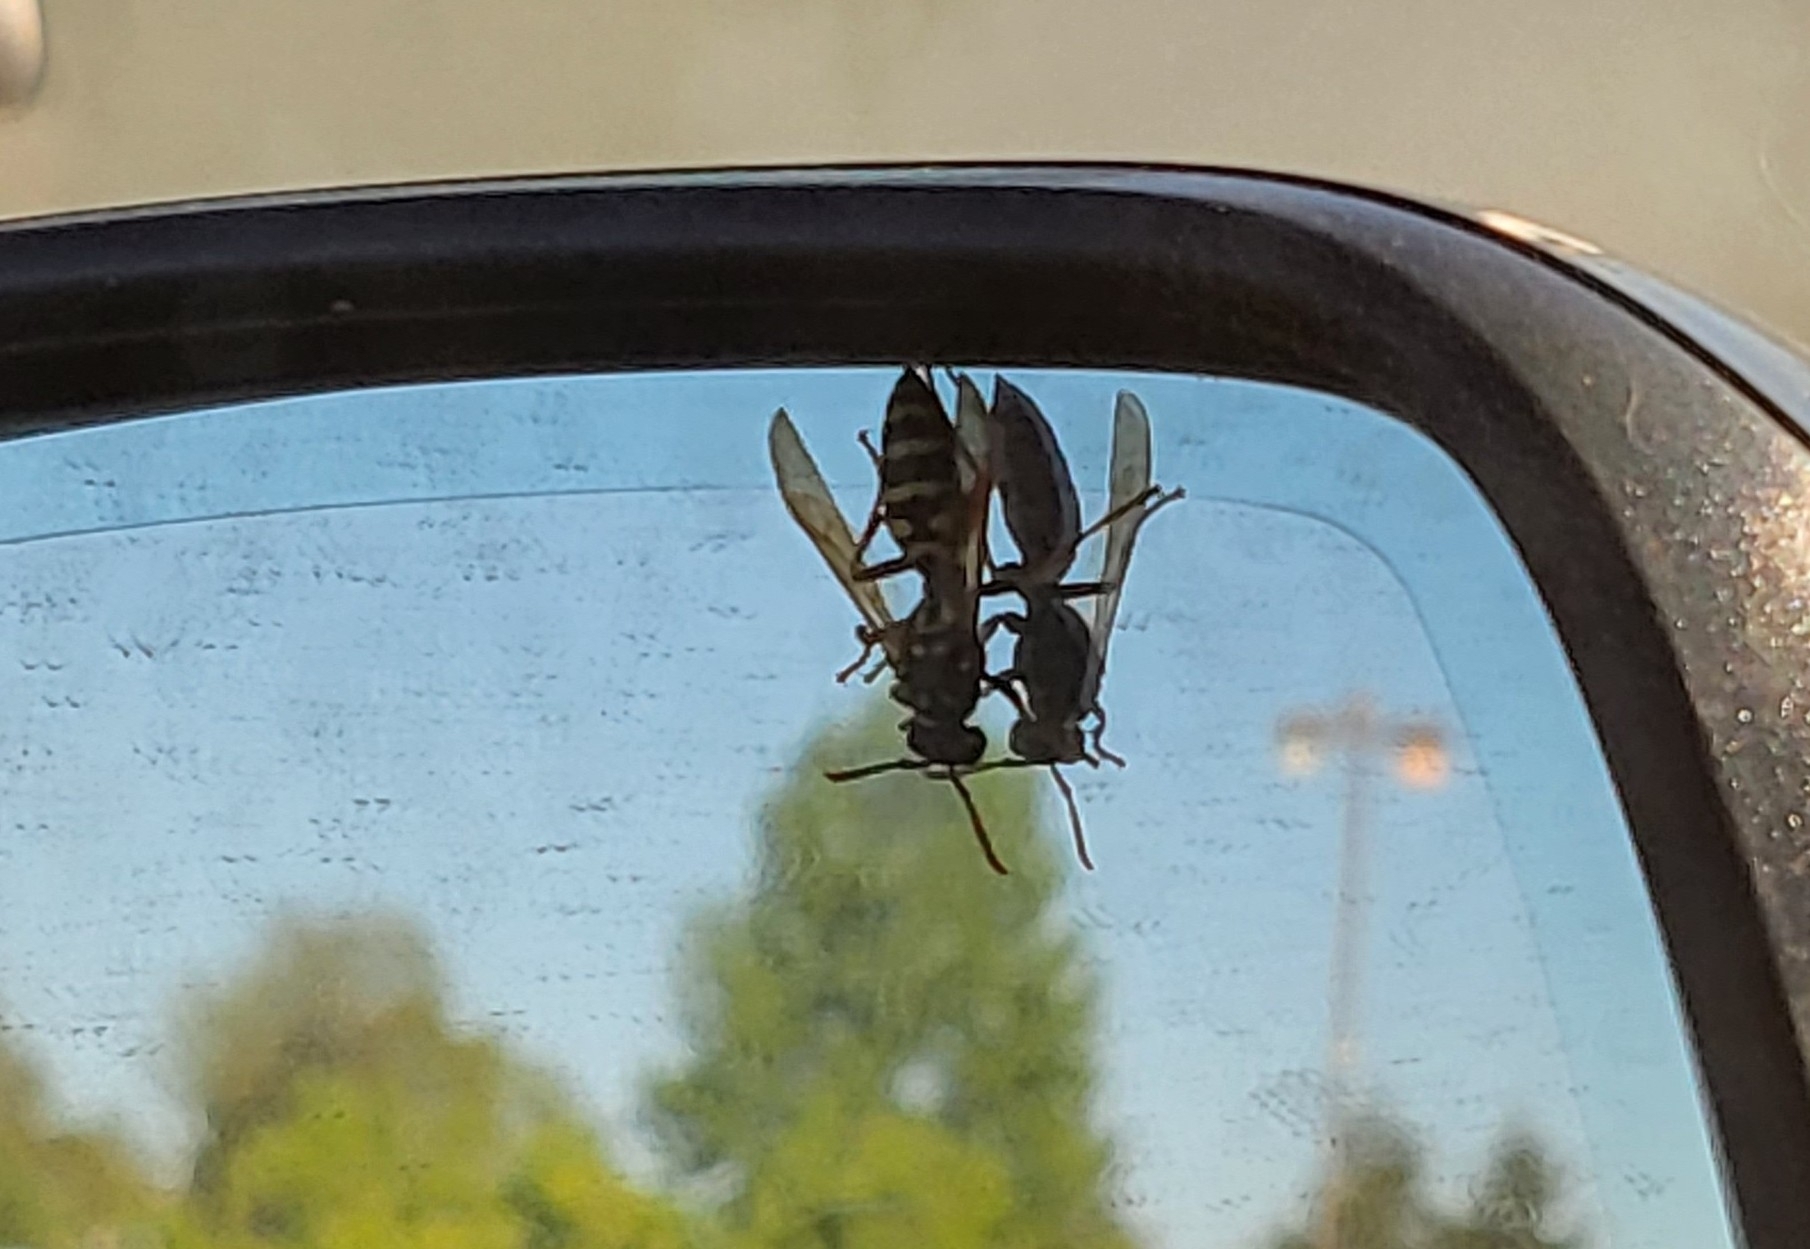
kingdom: Animalia
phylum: Arthropoda
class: Insecta
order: Hymenoptera
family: Eumenidae
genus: Polistes
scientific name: Polistes dominula
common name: Paper wasp
